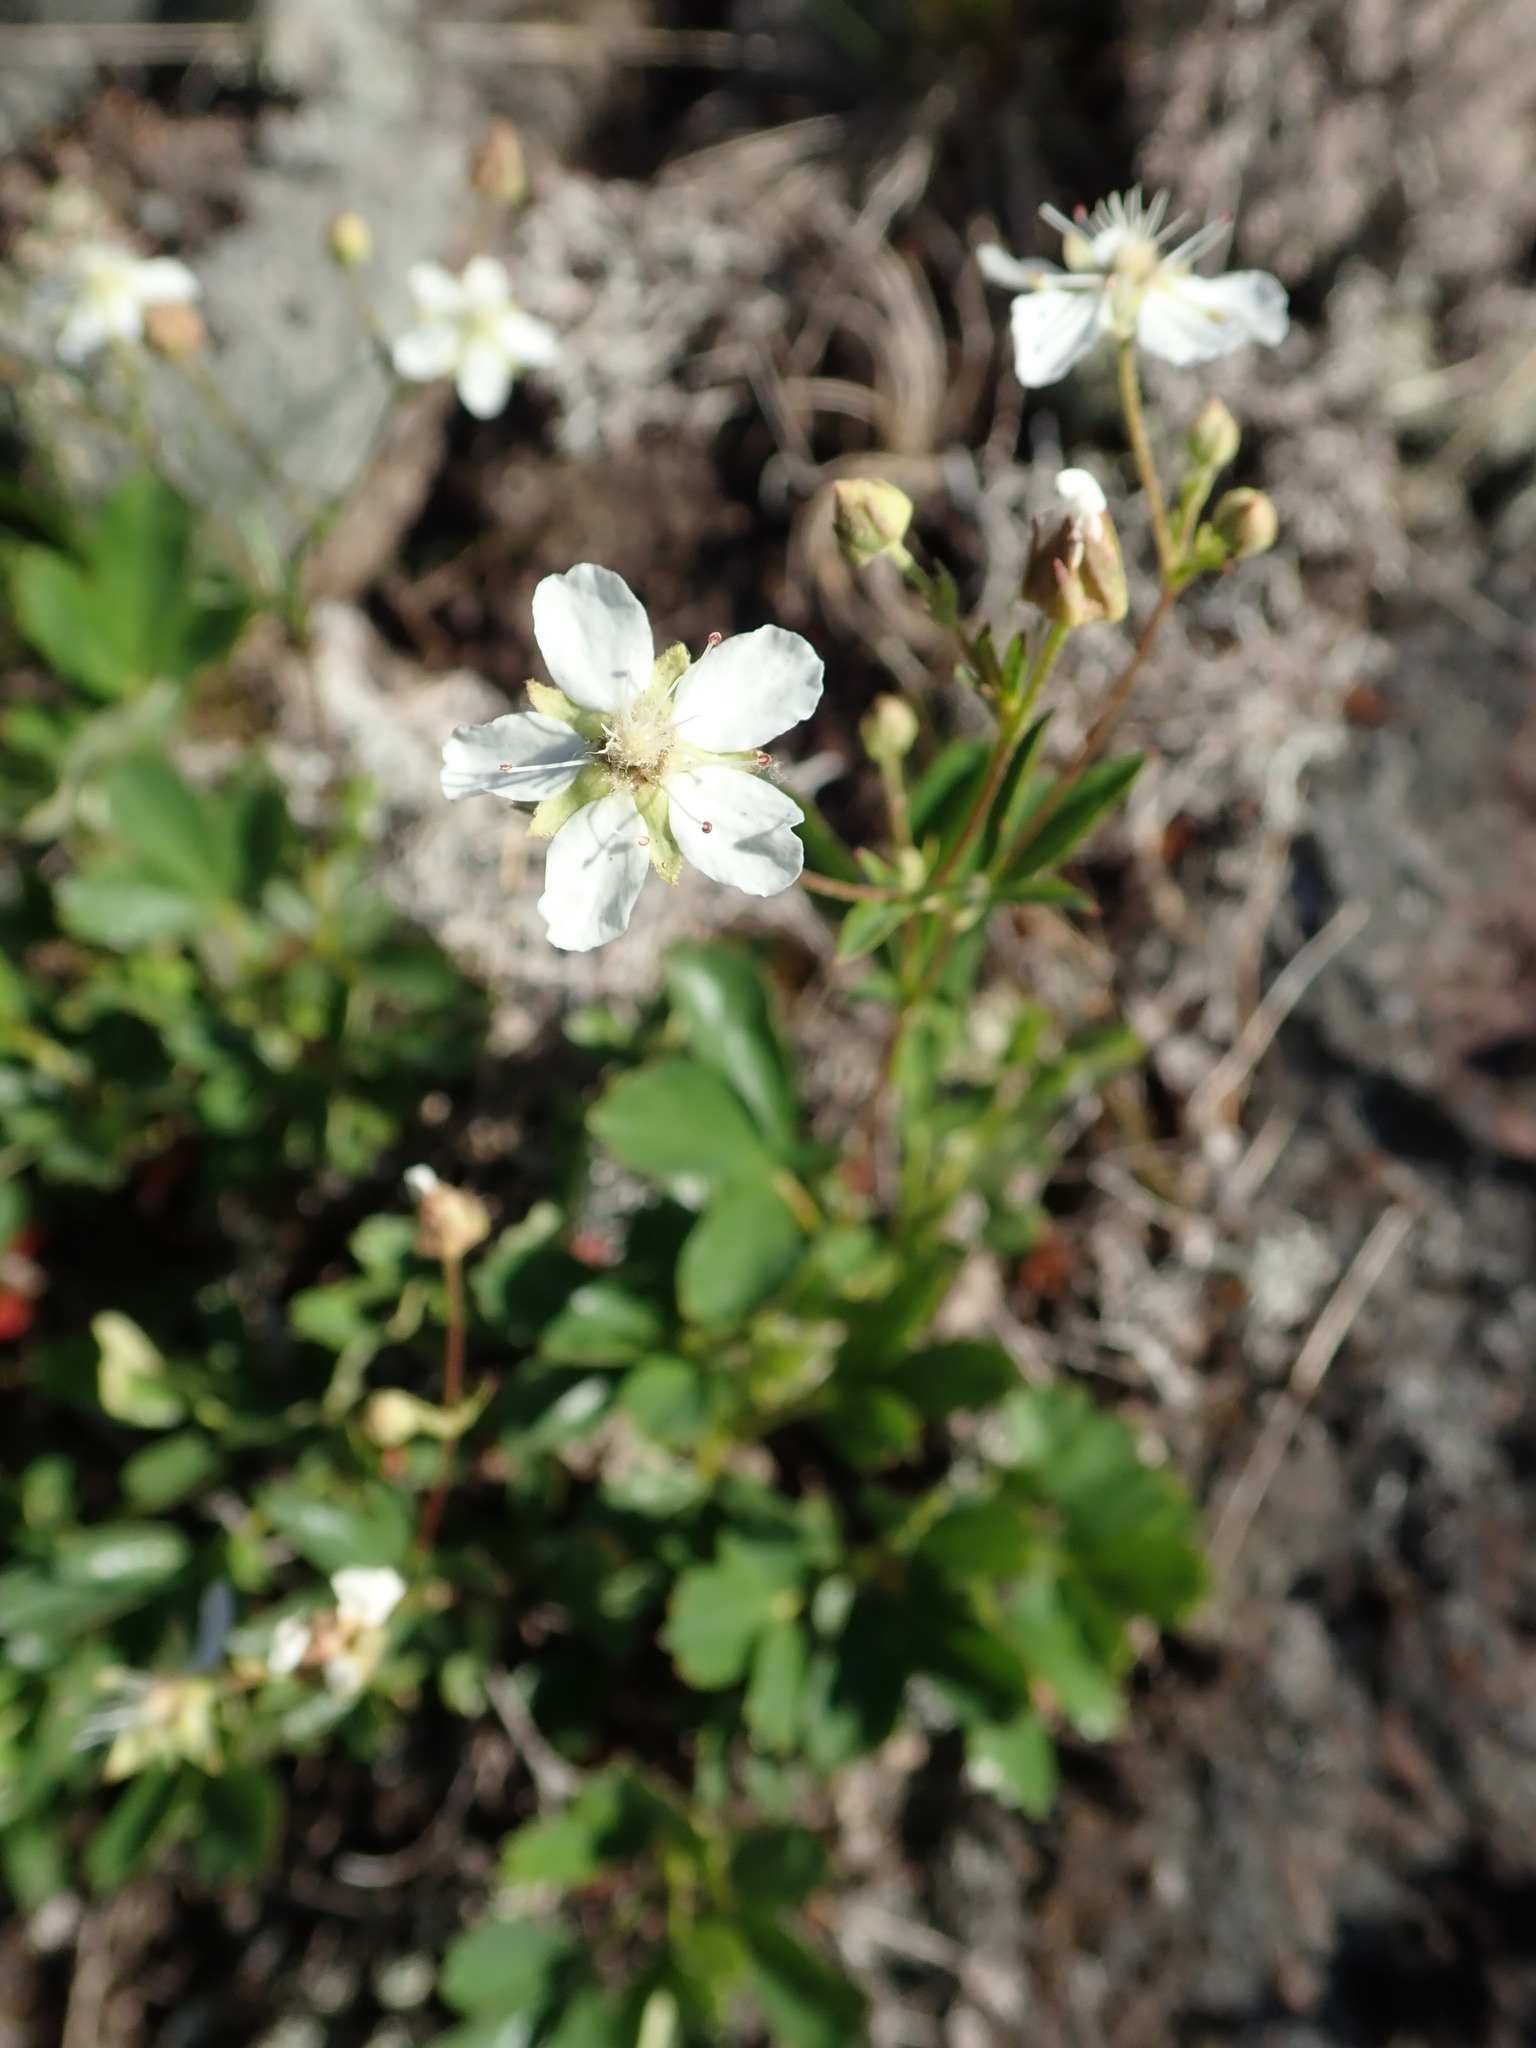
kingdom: Plantae
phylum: Tracheophyta
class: Magnoliopsida
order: Rosales
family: Rosaceae
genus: Sibbaldia
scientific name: Sibbaldia tridentata
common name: Three-toothed cinquefoil
